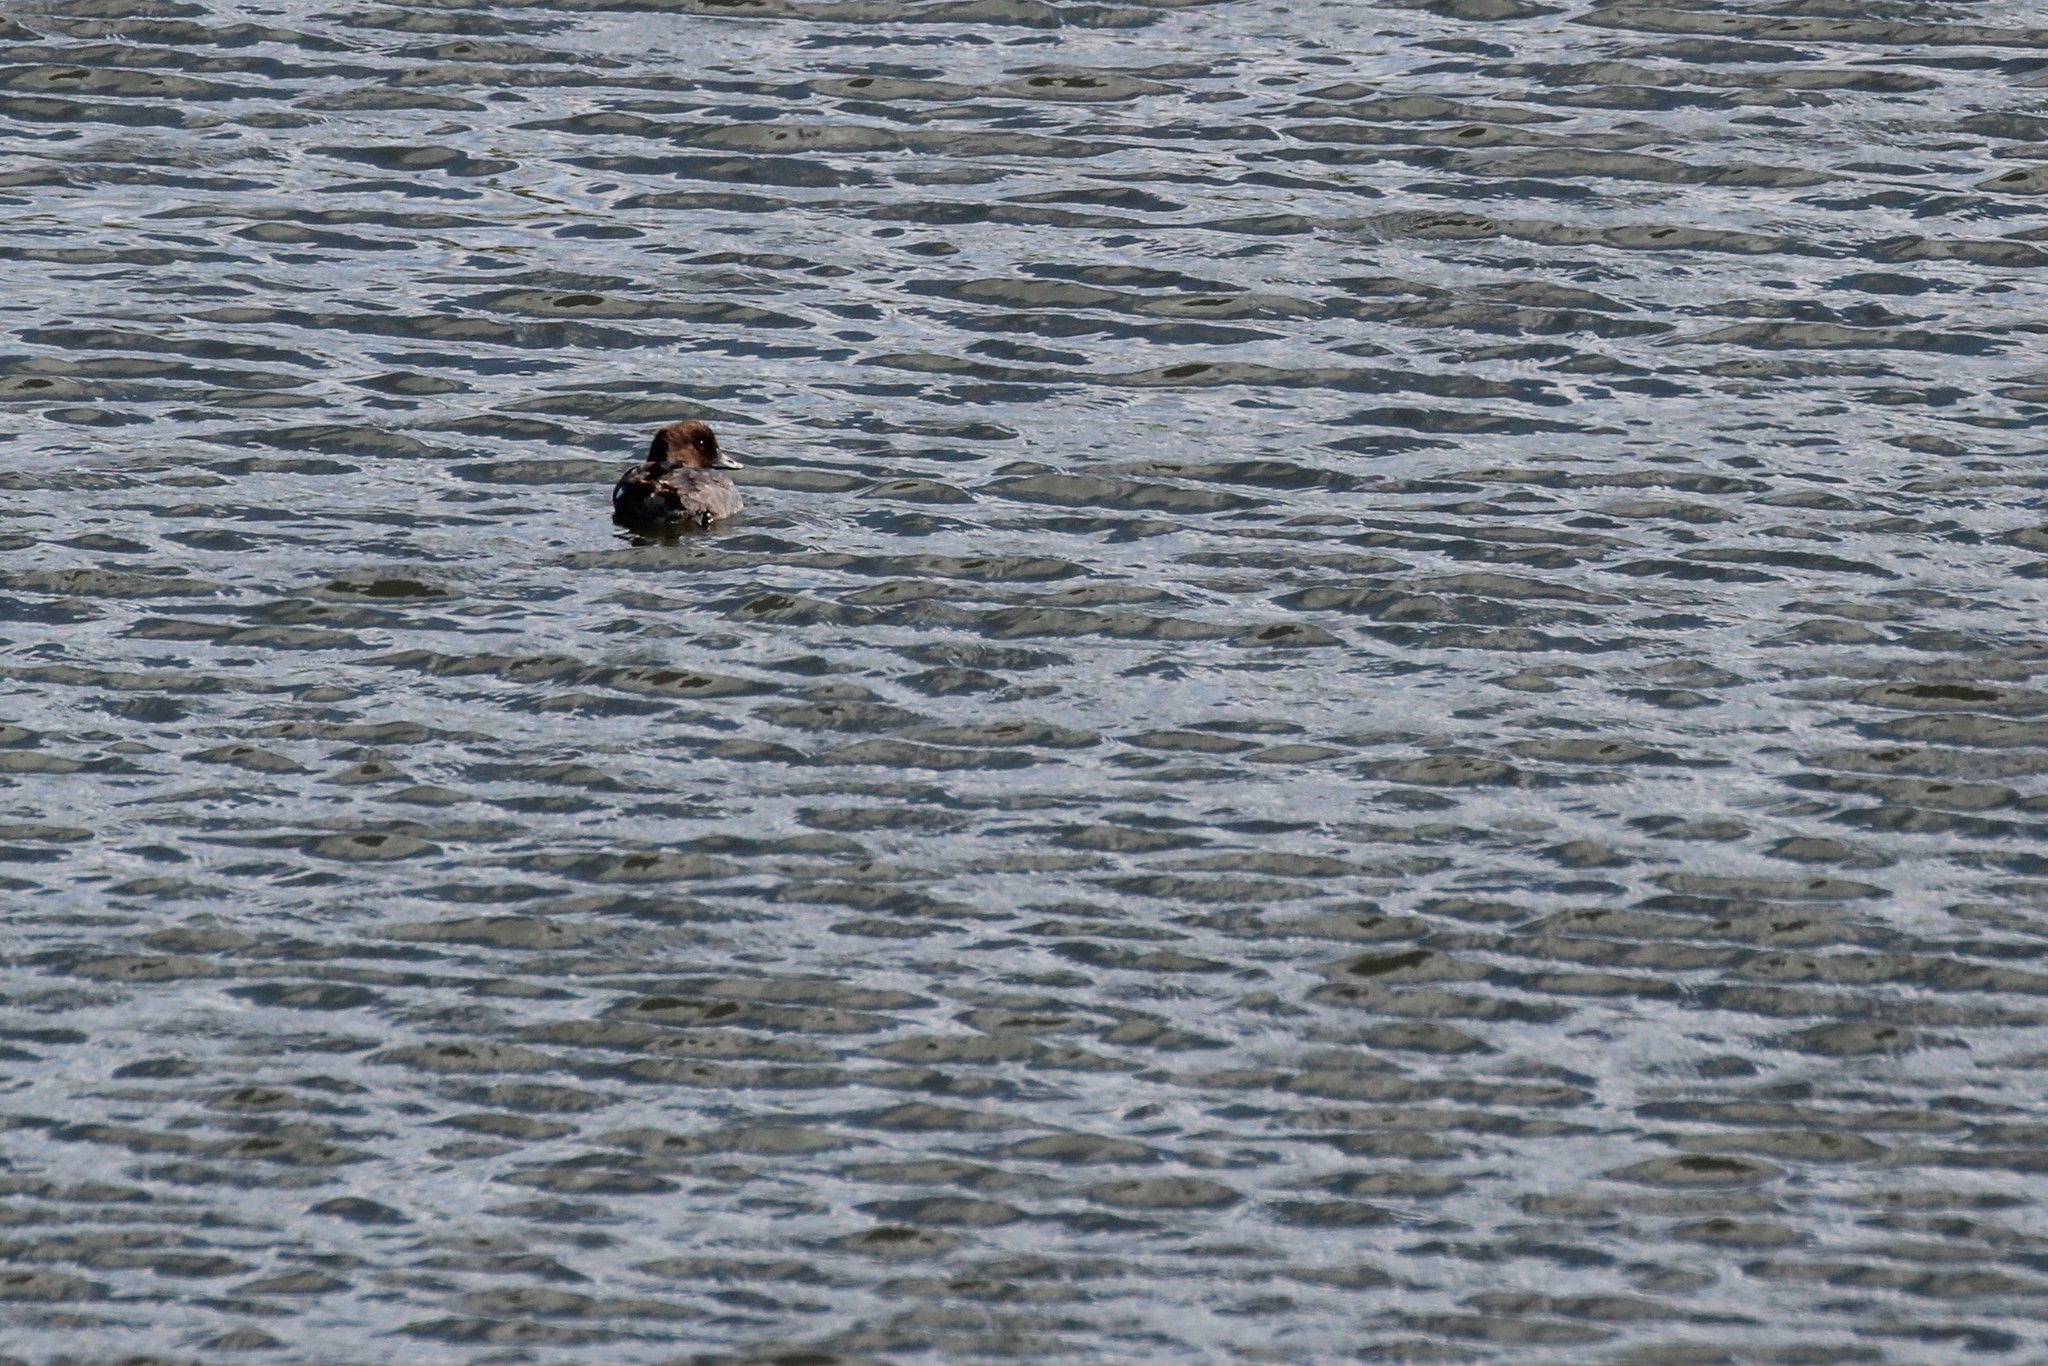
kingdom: Animalia
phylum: Chordata
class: Aves
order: Anseriformes
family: Anatidae
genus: Bucephala
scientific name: Bucephala clangula
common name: Common goldeneye
